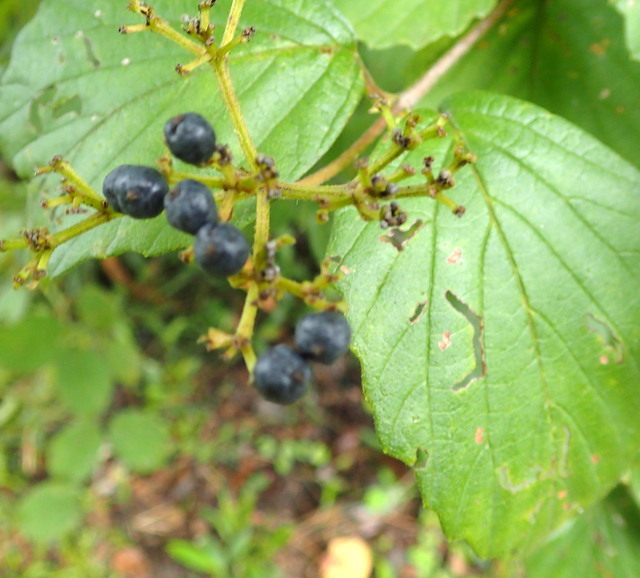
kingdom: Plantae
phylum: Tracheophyta
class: Magnoliopsida
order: Dipsacales
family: Viburnaceae
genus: Viburnum
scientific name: Viburnum scabrellum
